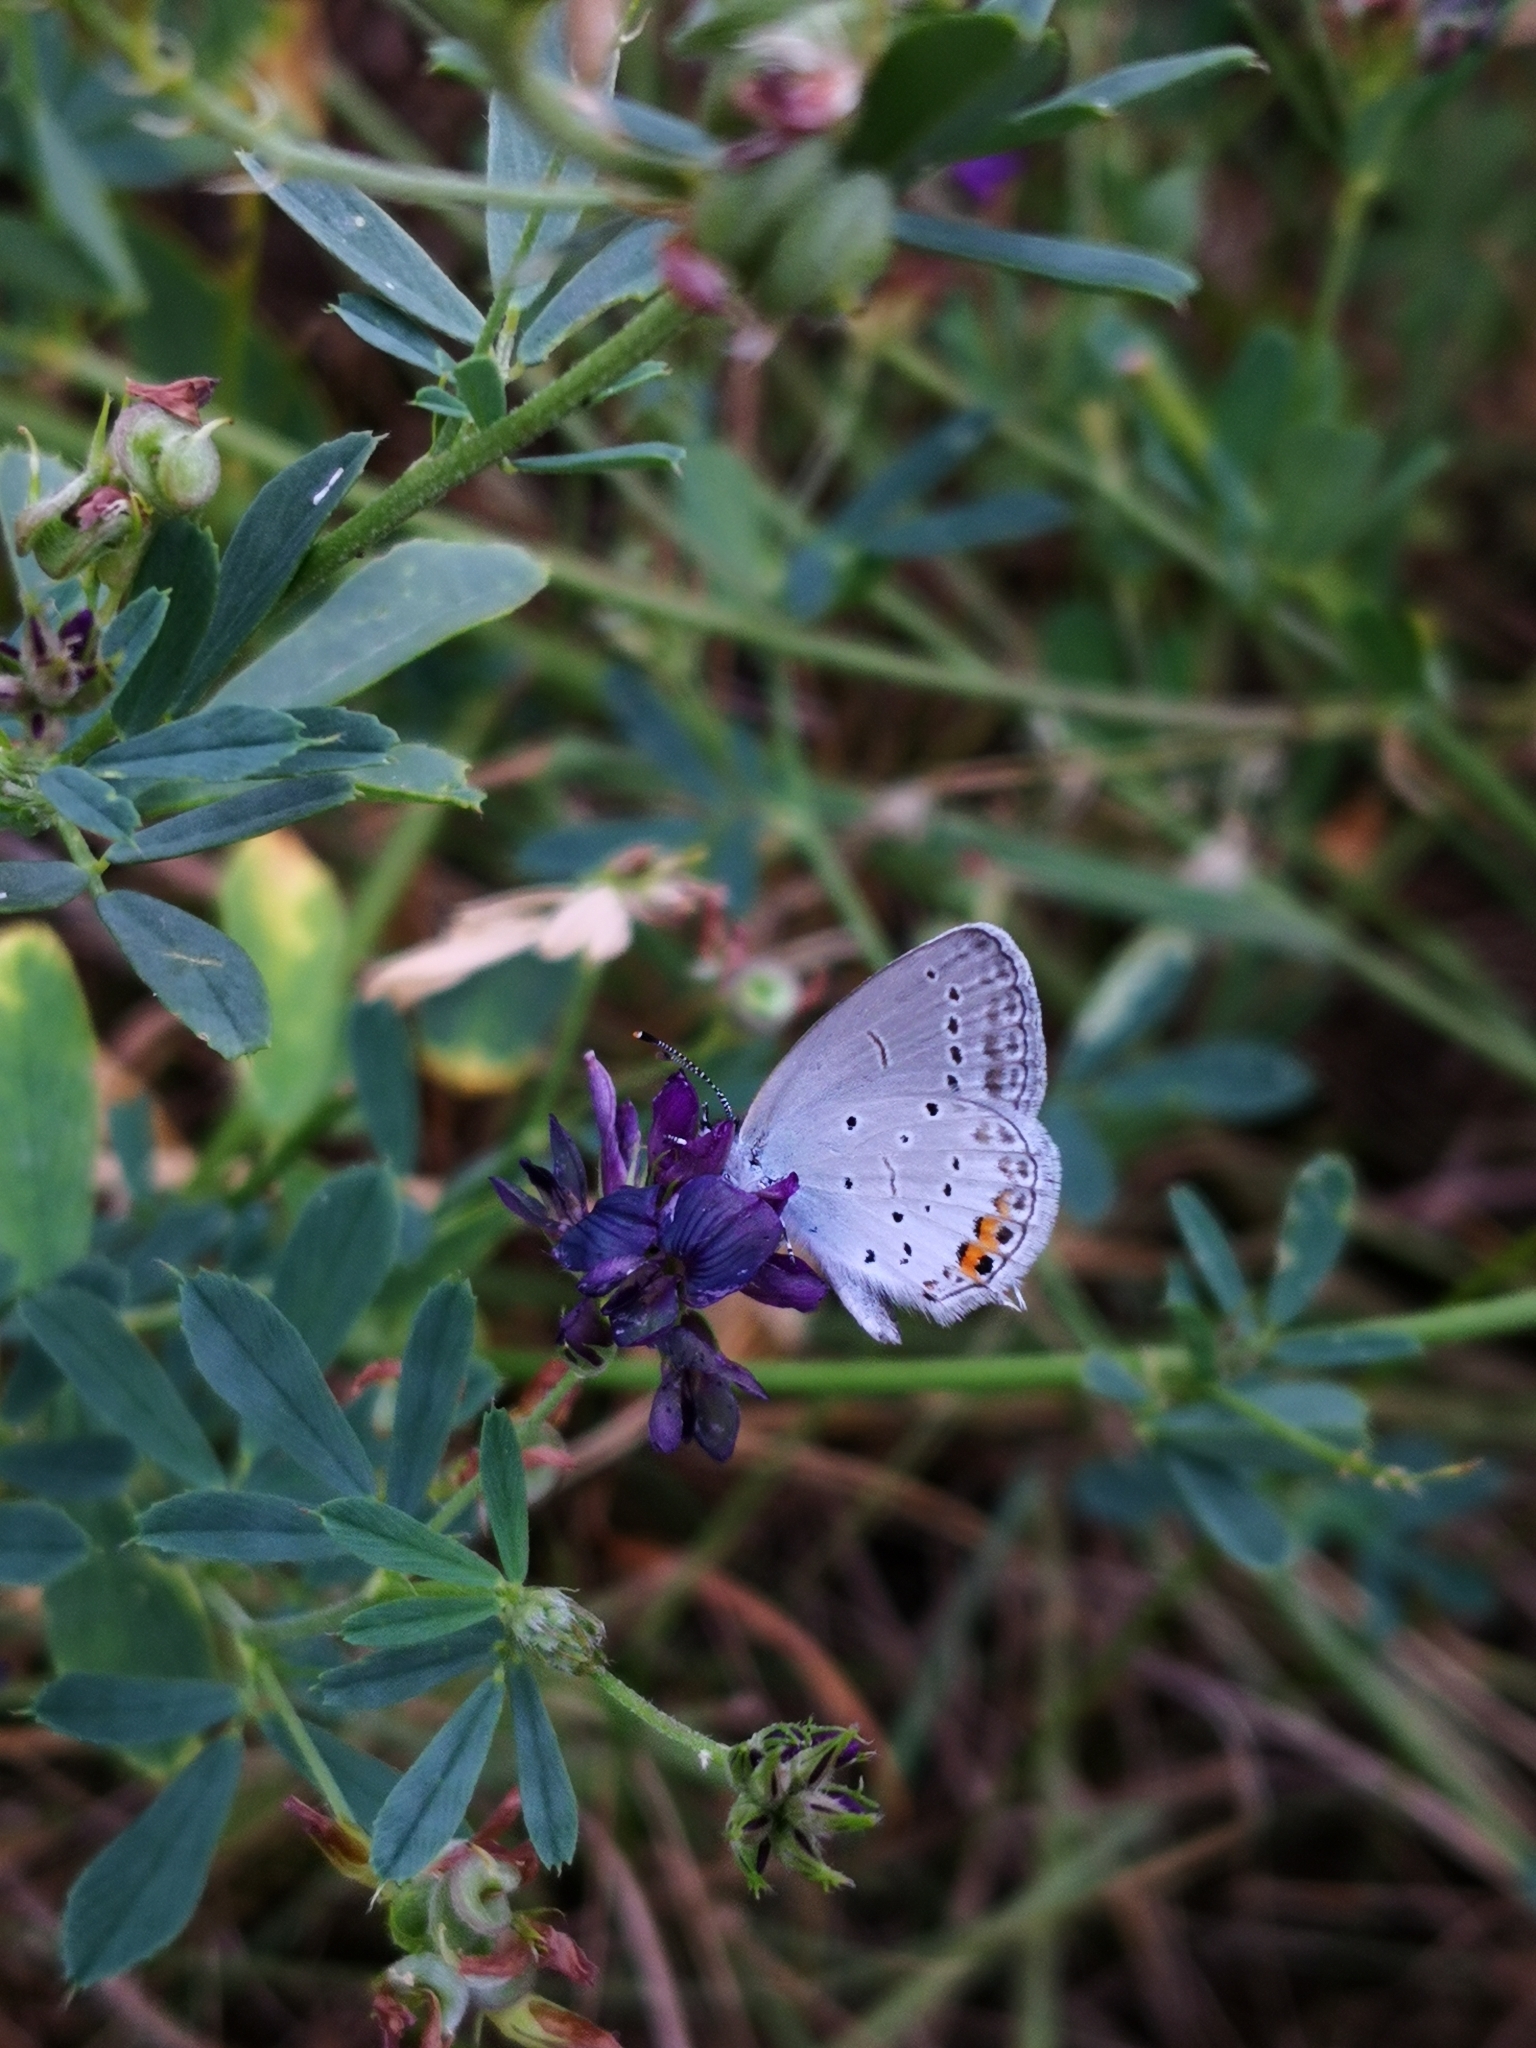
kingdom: Animalia
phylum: Arthropoda
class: Insecta
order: Lepidoptera
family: Lycaenidae
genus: Elkalyce
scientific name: Elkalyce argiades
